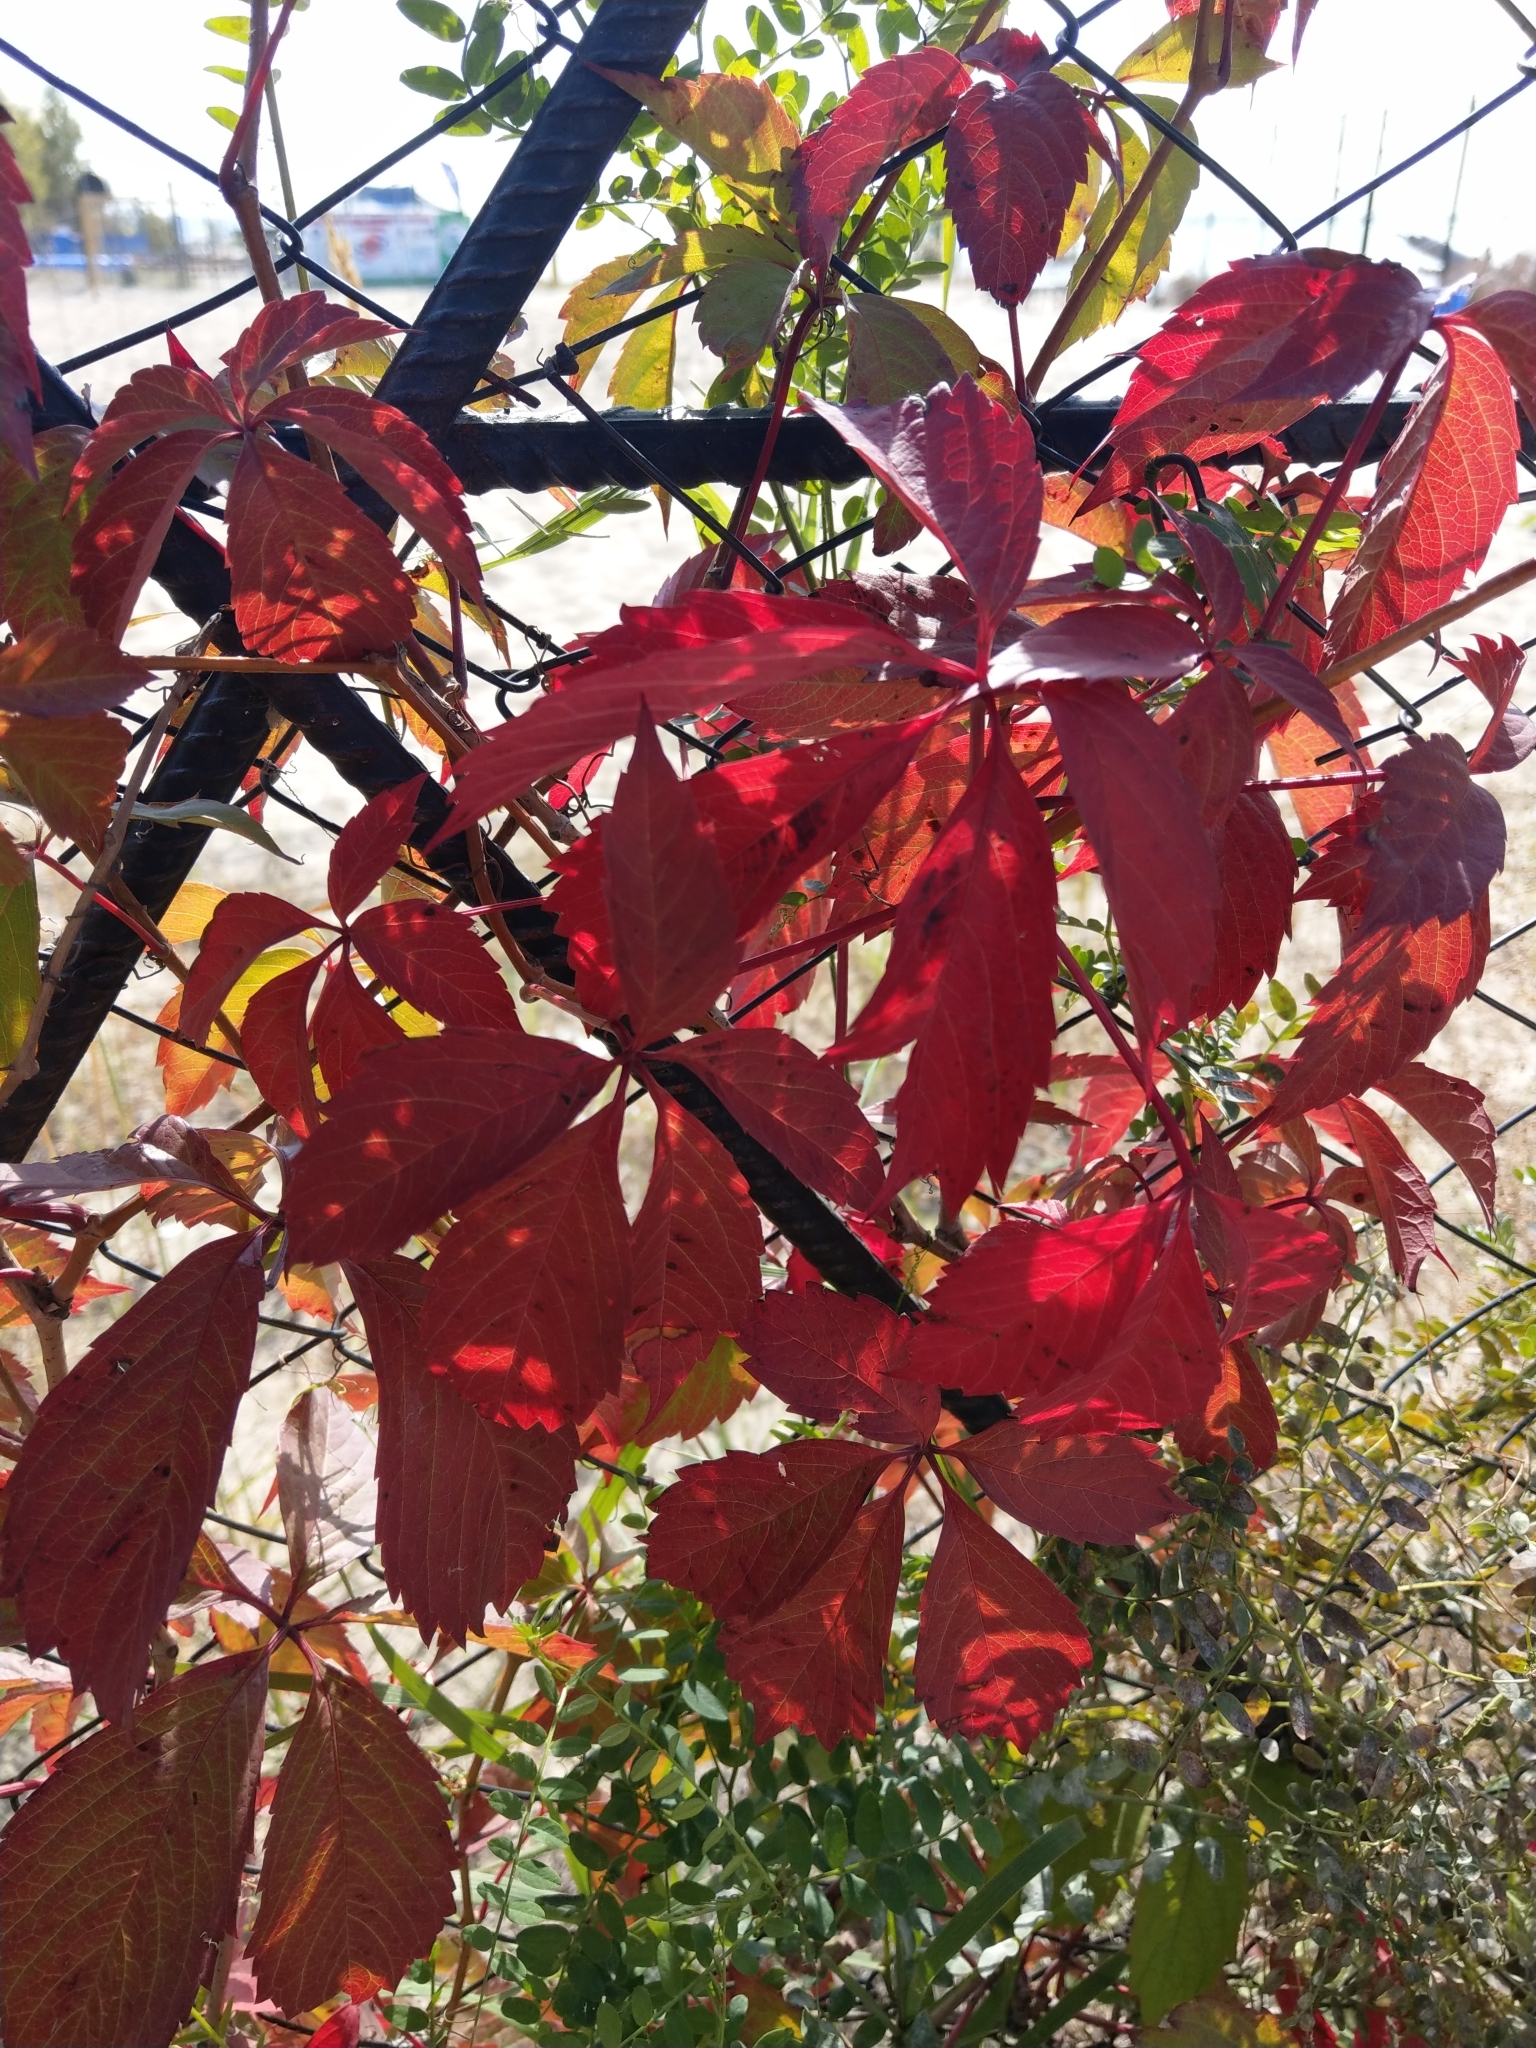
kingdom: Plantae
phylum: Tracheophyta
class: Magnoliopsida
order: Vitales
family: Vitaceae
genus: Parthenocissus
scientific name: Parthenocissus inserta
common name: False virginia-creeper
